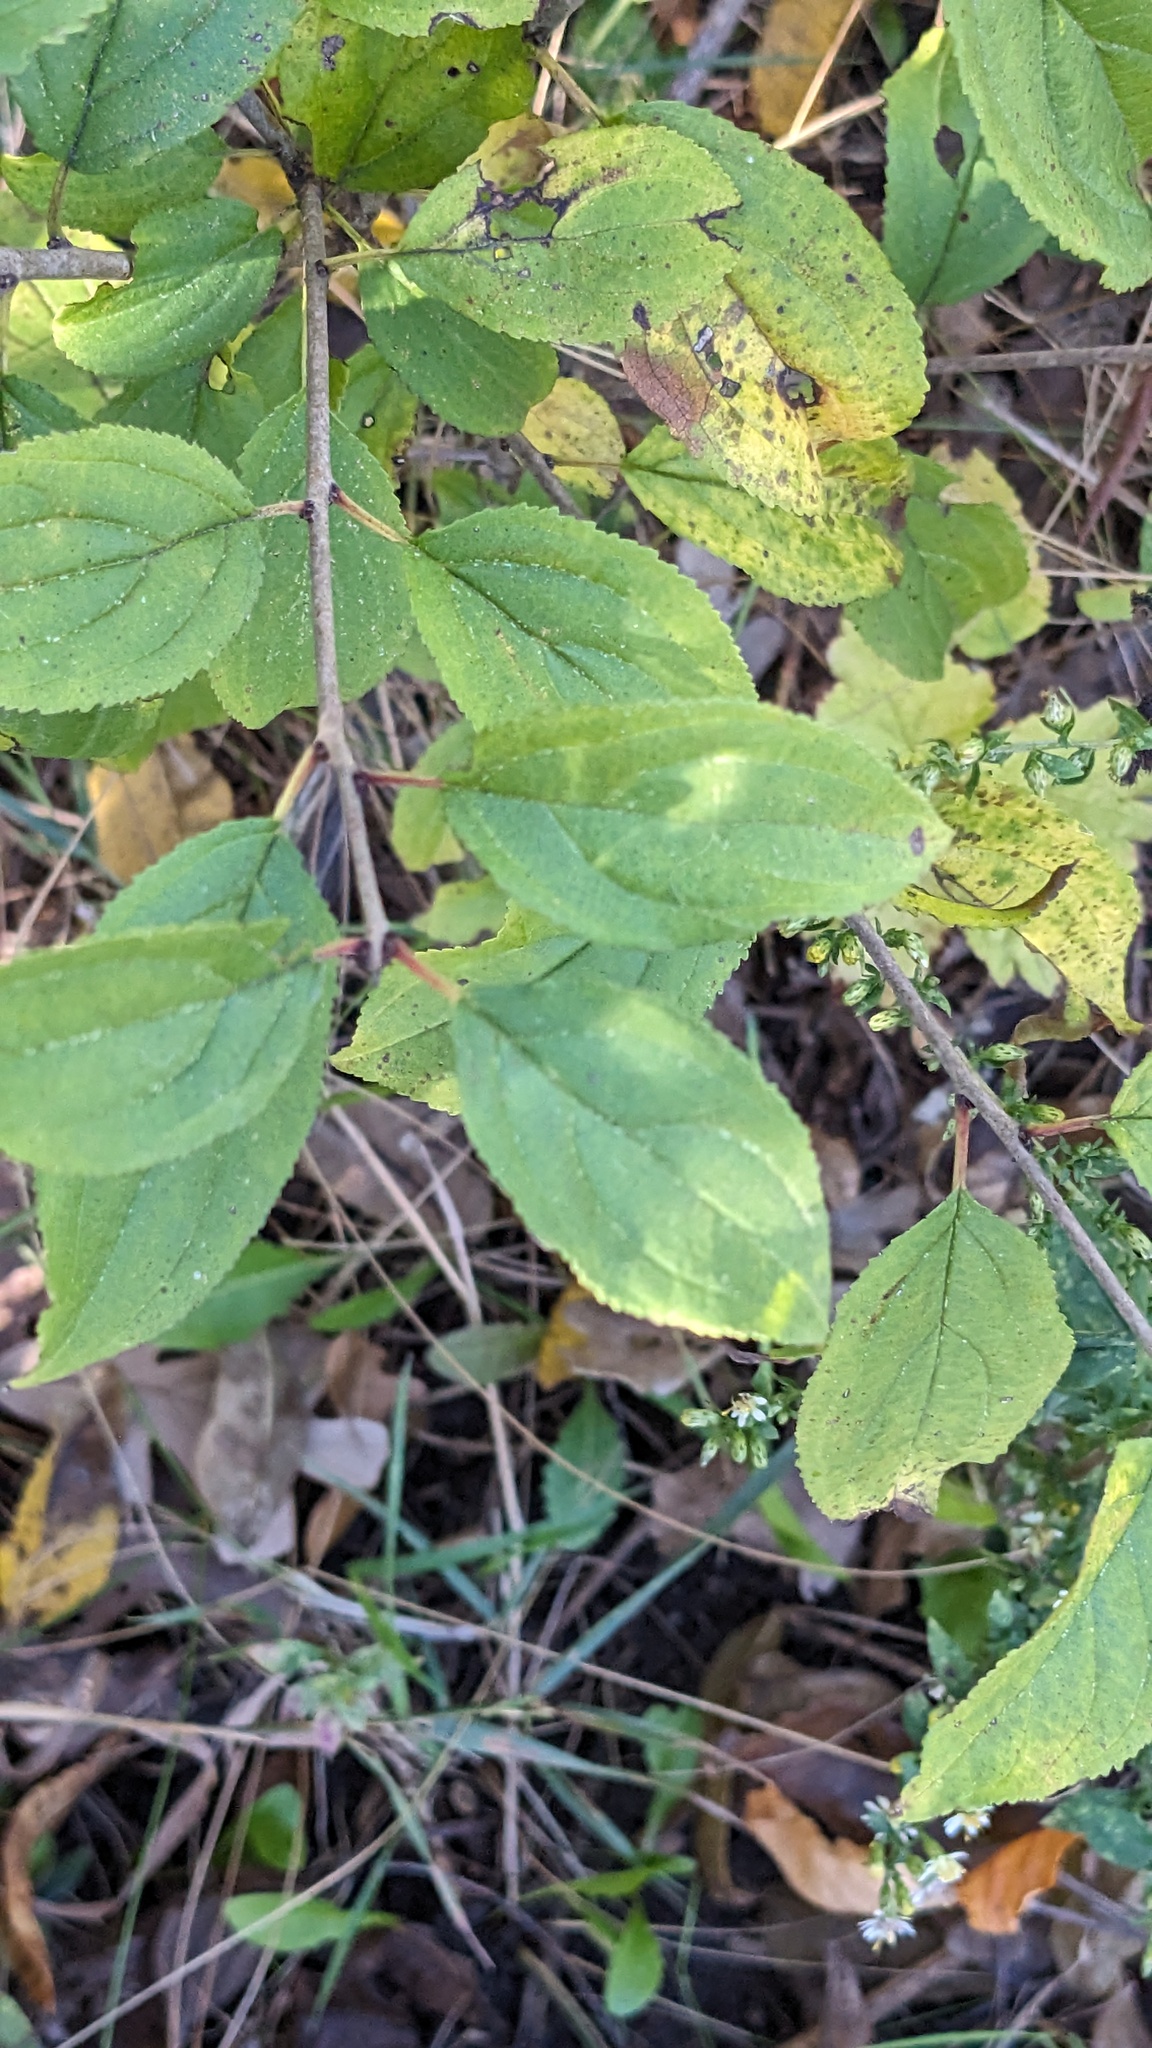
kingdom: Plantae
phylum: Tracheophyta
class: Magnoliopsida
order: Rosales
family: Rhamnaceae
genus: Rhamnus
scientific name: Rhamnus cathartica
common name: Common buckthorn
